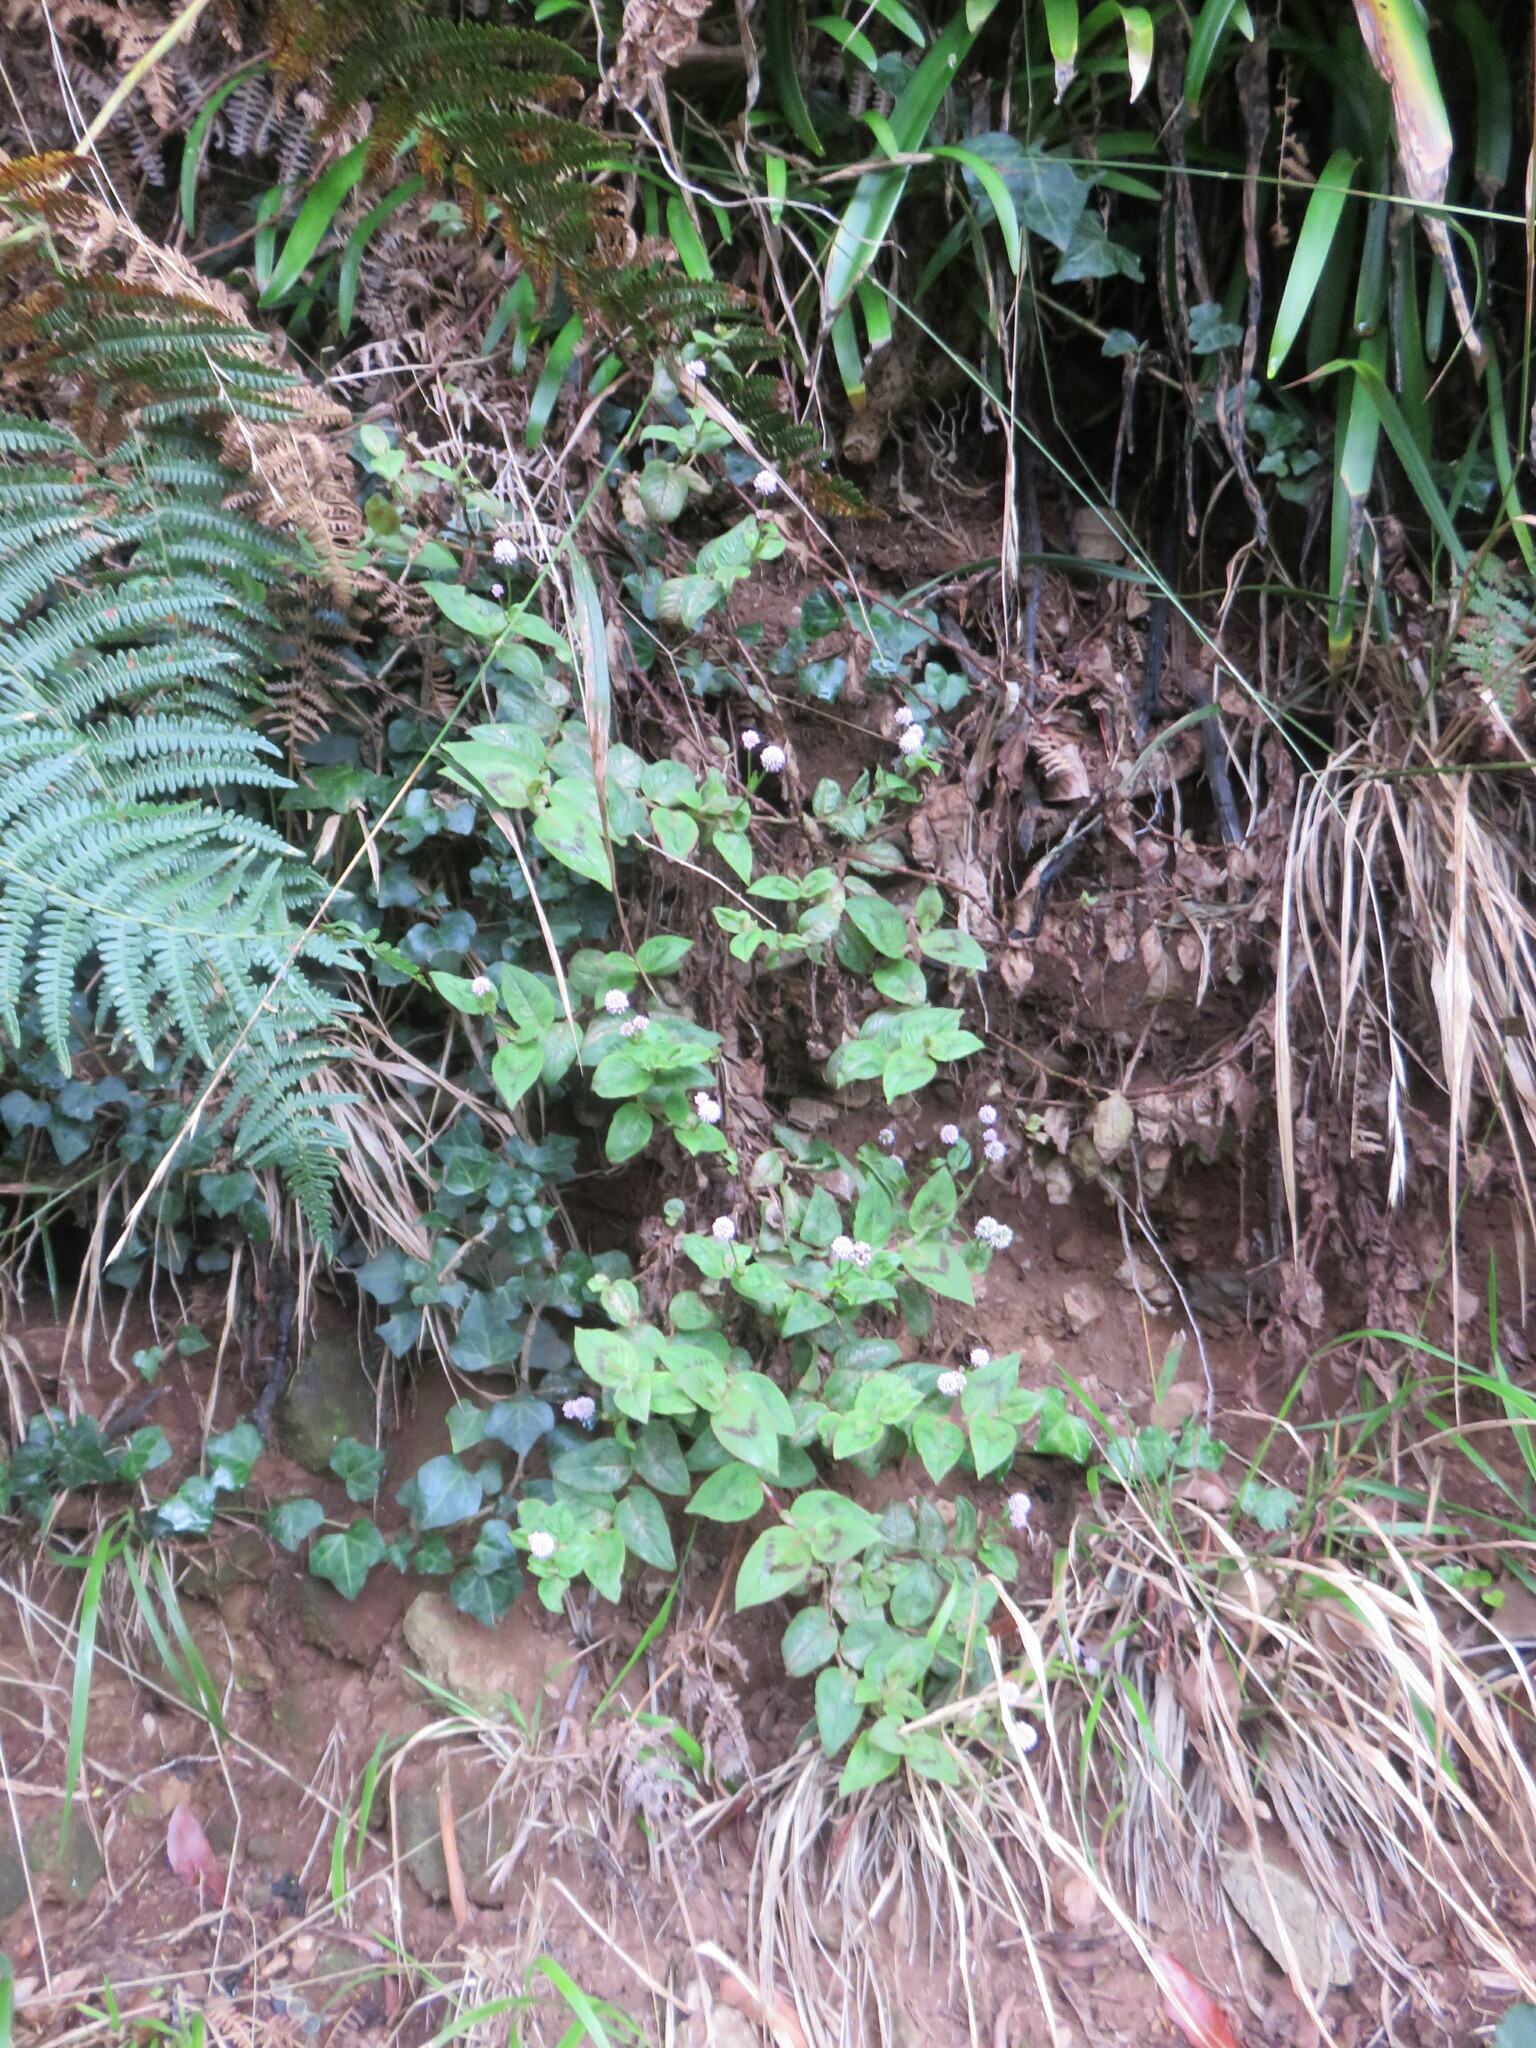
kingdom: Plantae
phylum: Tracheophyta
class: Magnoliopsida
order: Caryophyllales
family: Polygonaceae
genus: Persicaria
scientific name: Persicaria capitata
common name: Pinkhead smartweed
